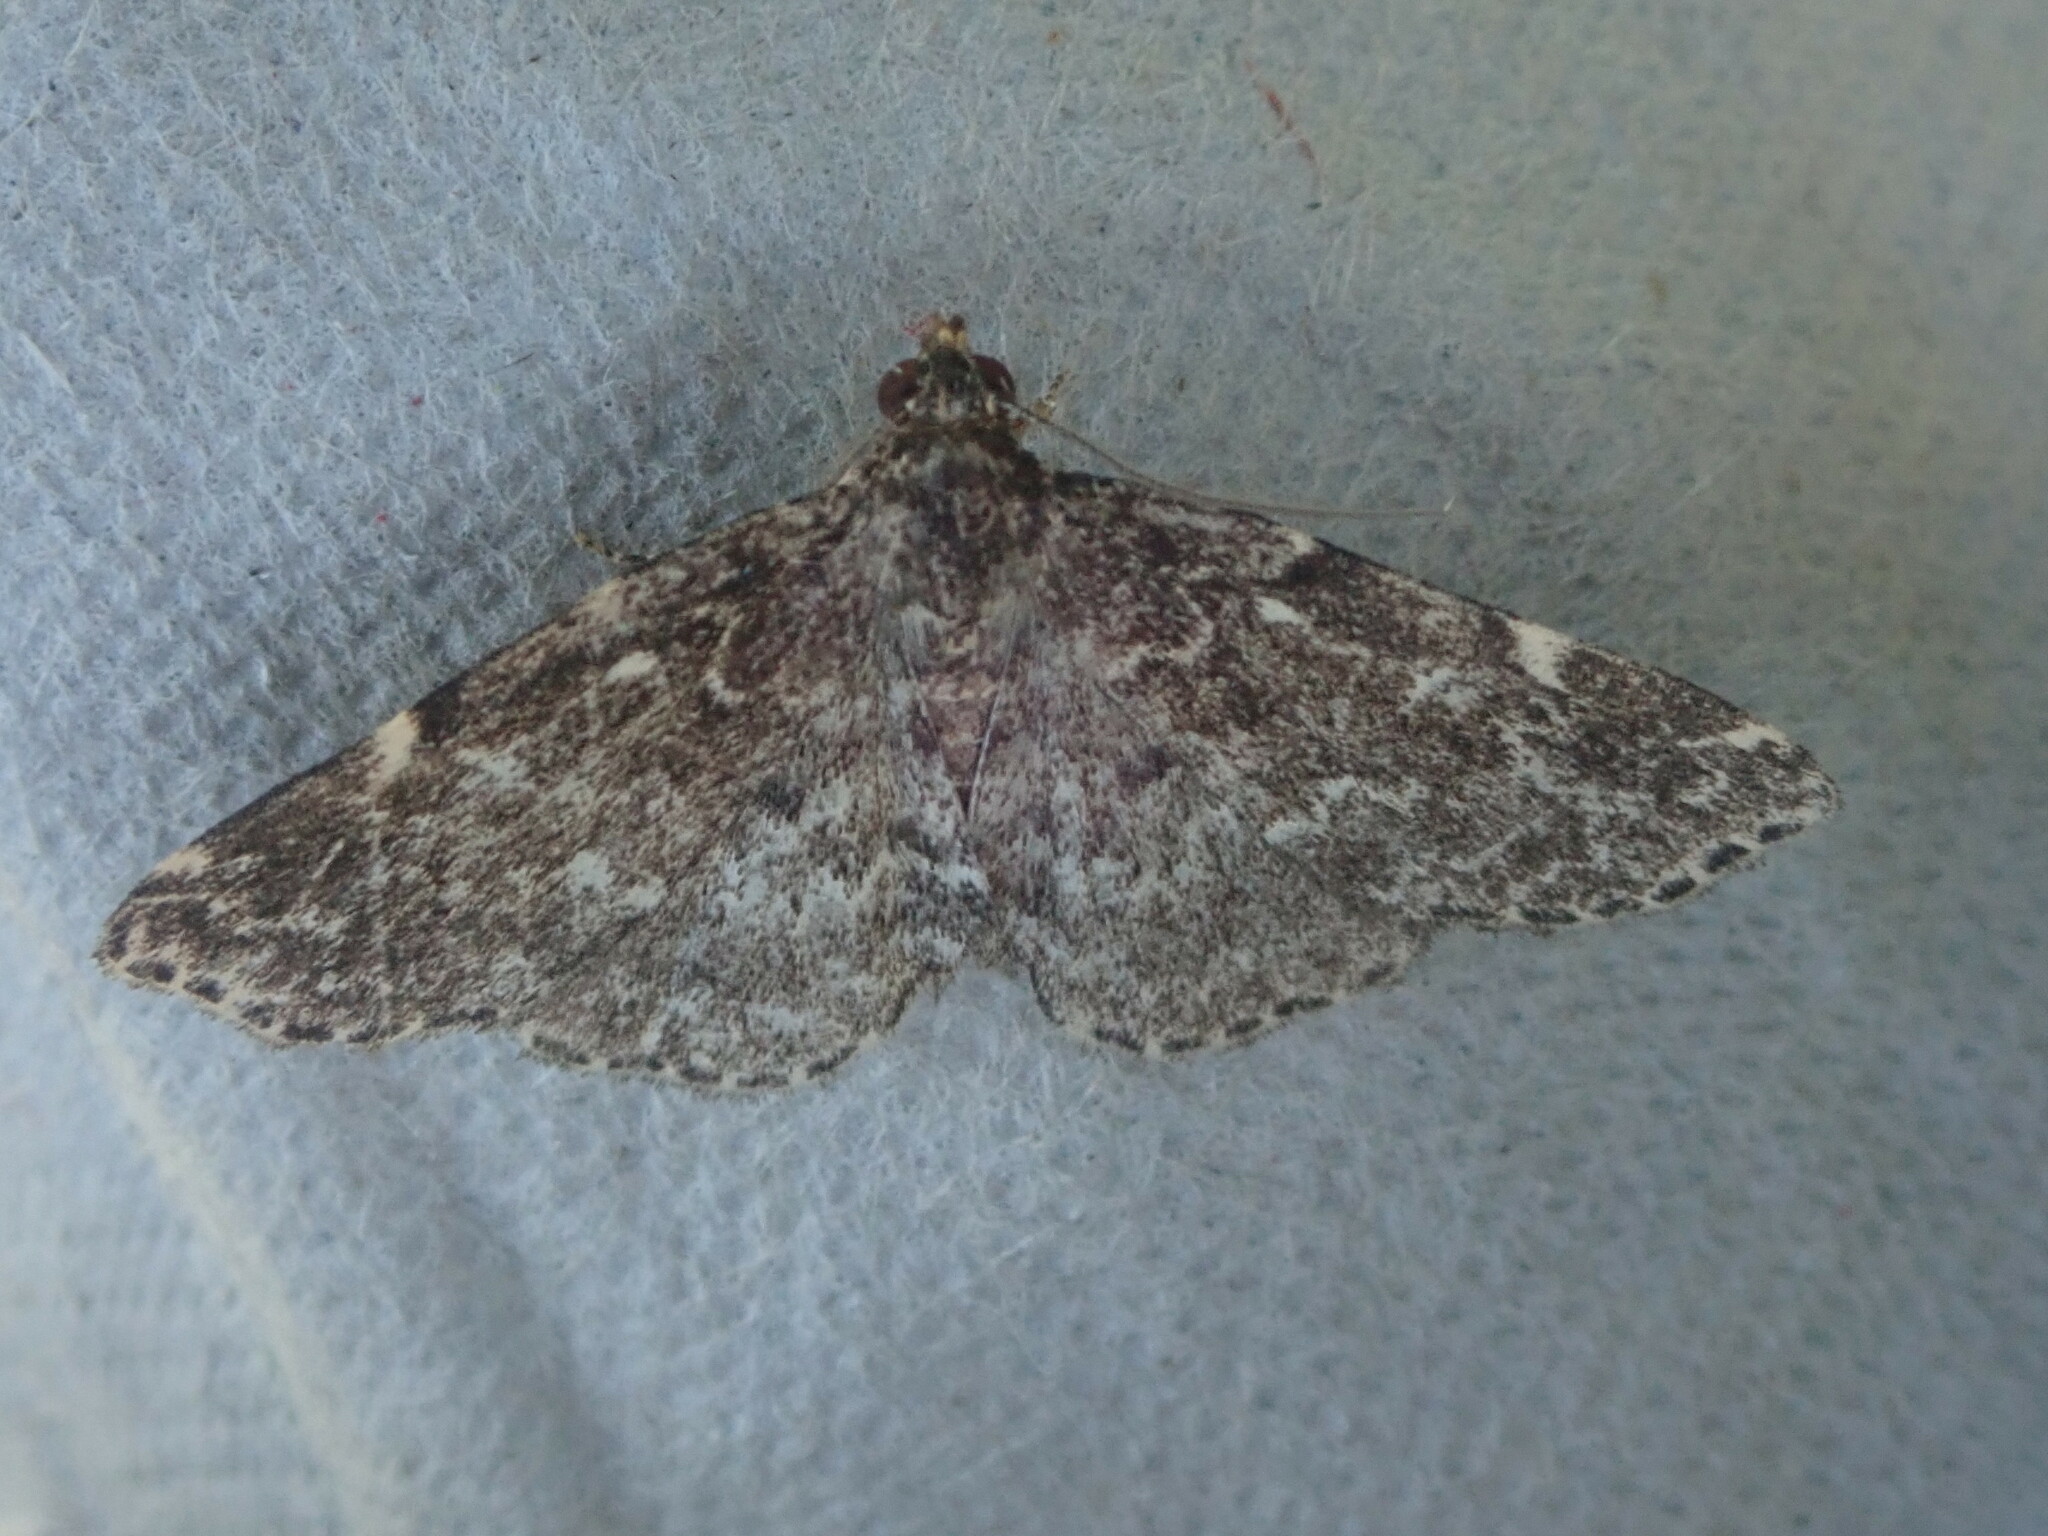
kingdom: Animalia
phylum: Arthropoda
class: Insecta
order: Lepidoptera
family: Erebidae
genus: Idia
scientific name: Idia scobialis
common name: Smoky idia moth
